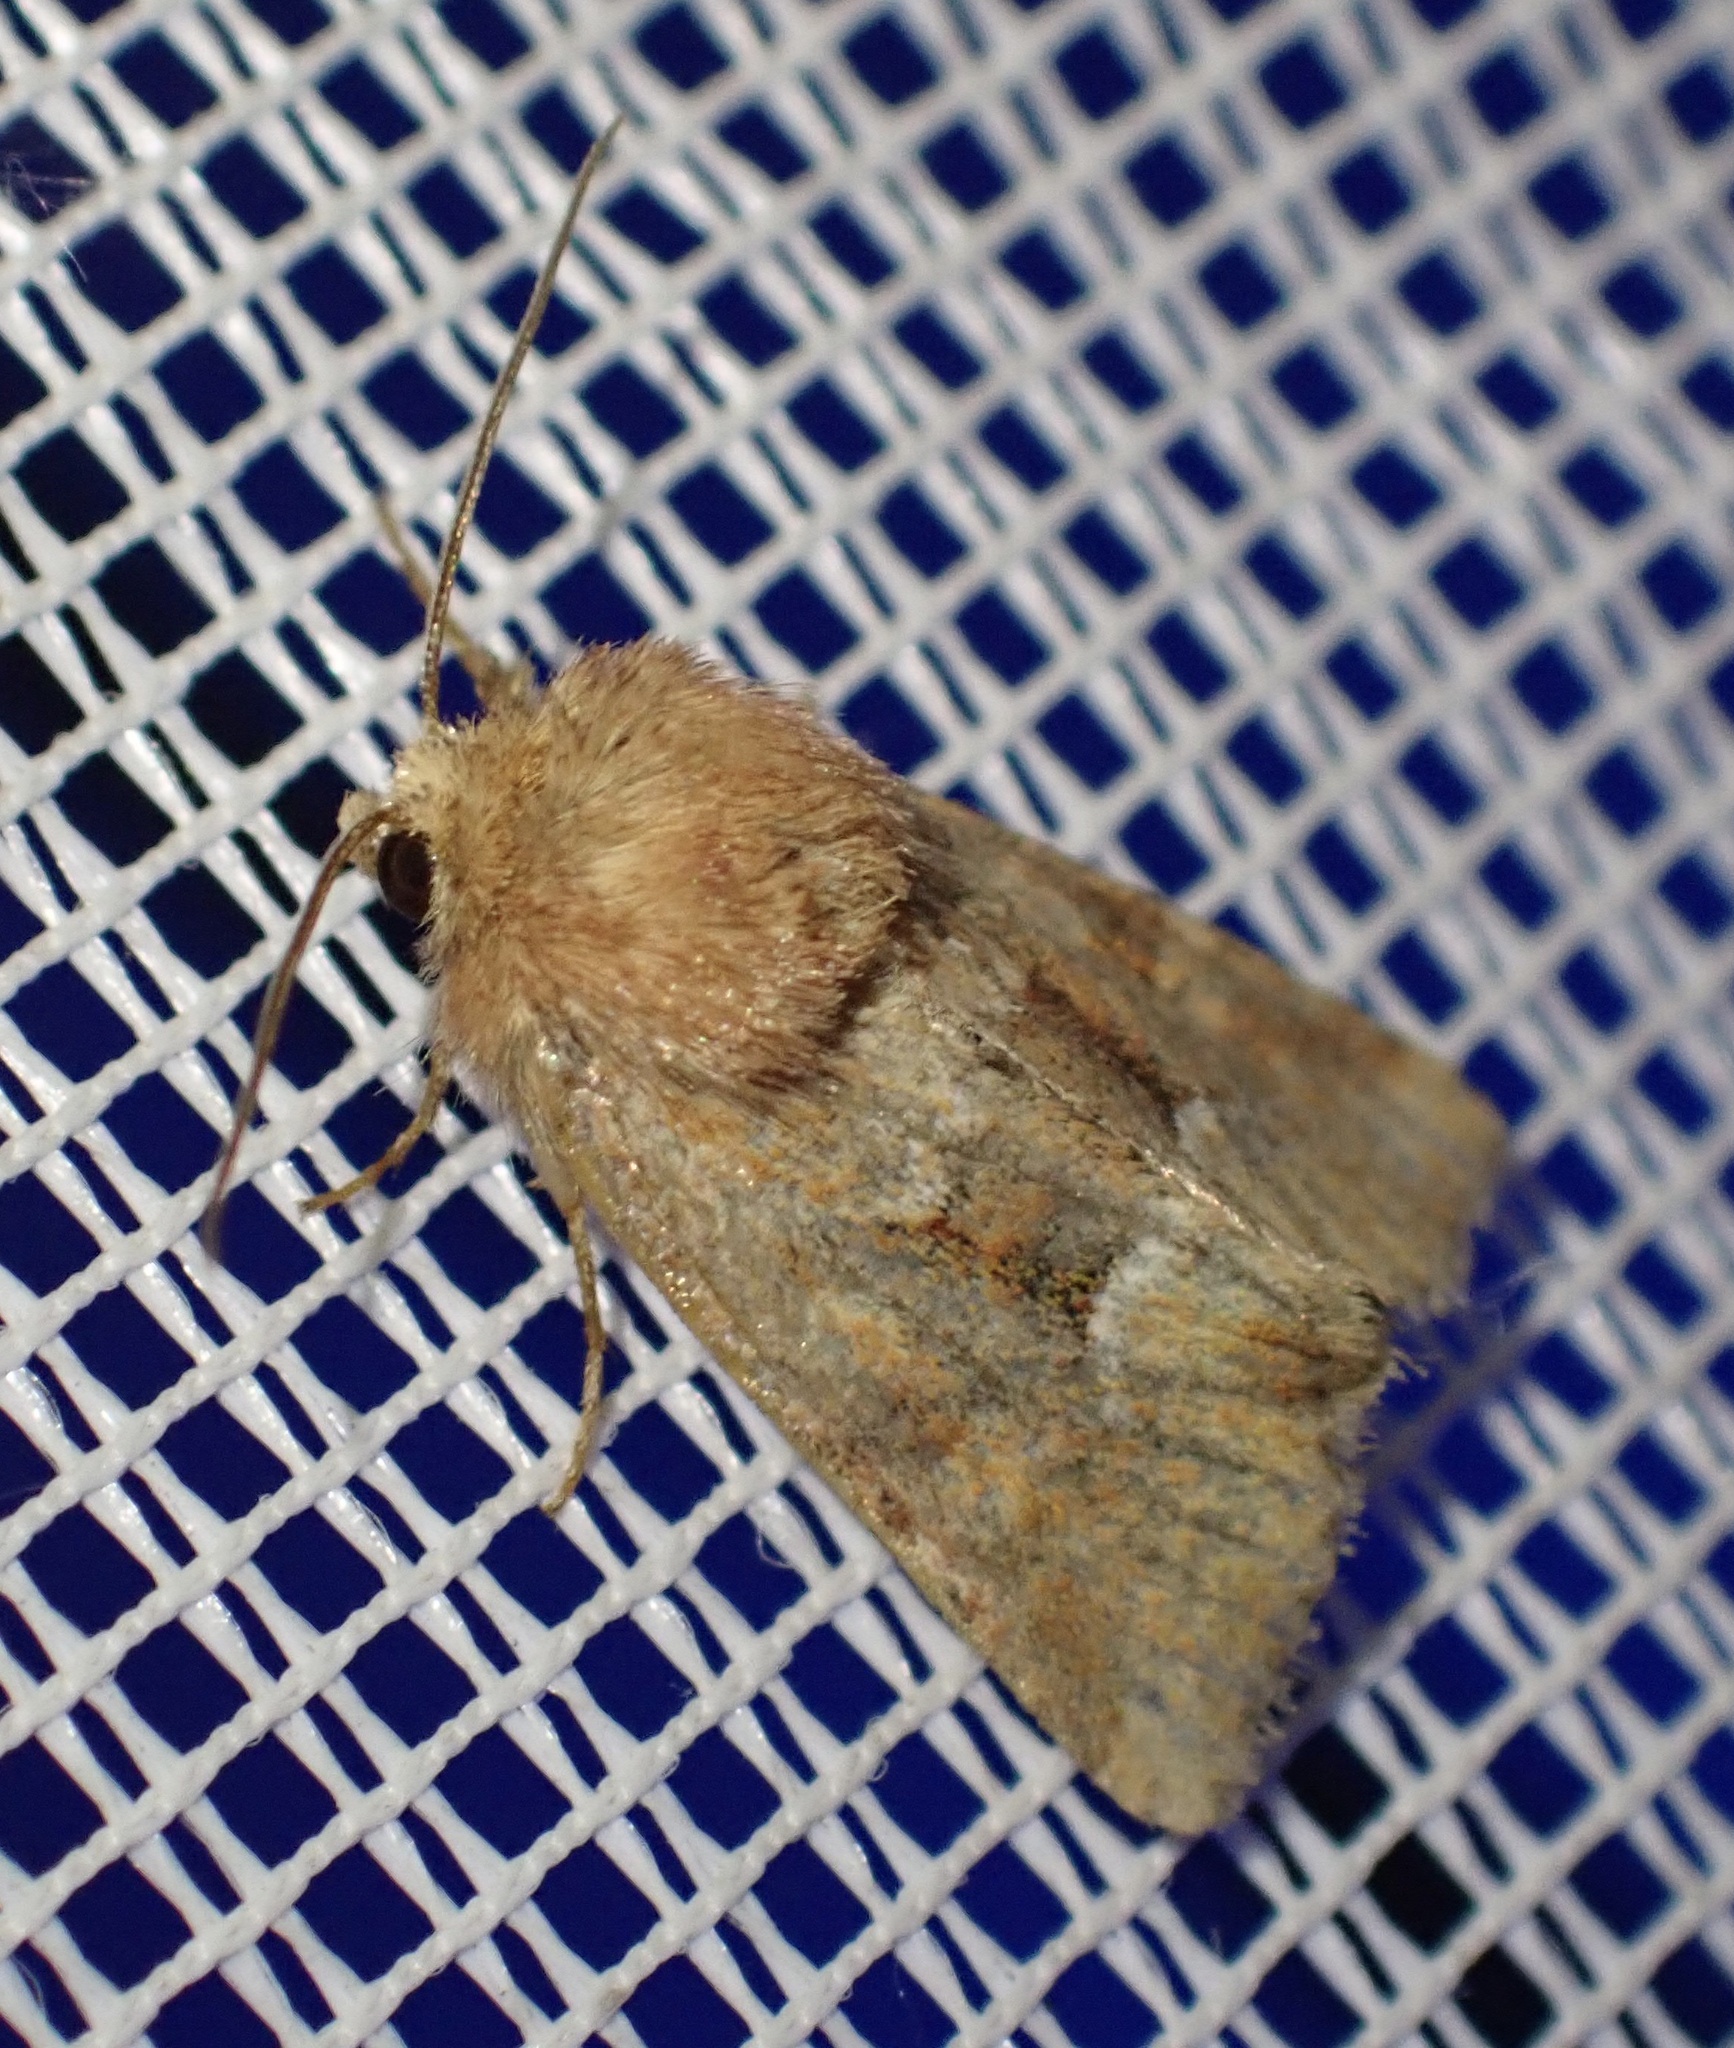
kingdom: Animalia
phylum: Arthropoda
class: Insecta
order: Lepidoptera
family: Noctuidae
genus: Oligia
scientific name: Oligia fasciuncula
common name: Middle-barred minor
